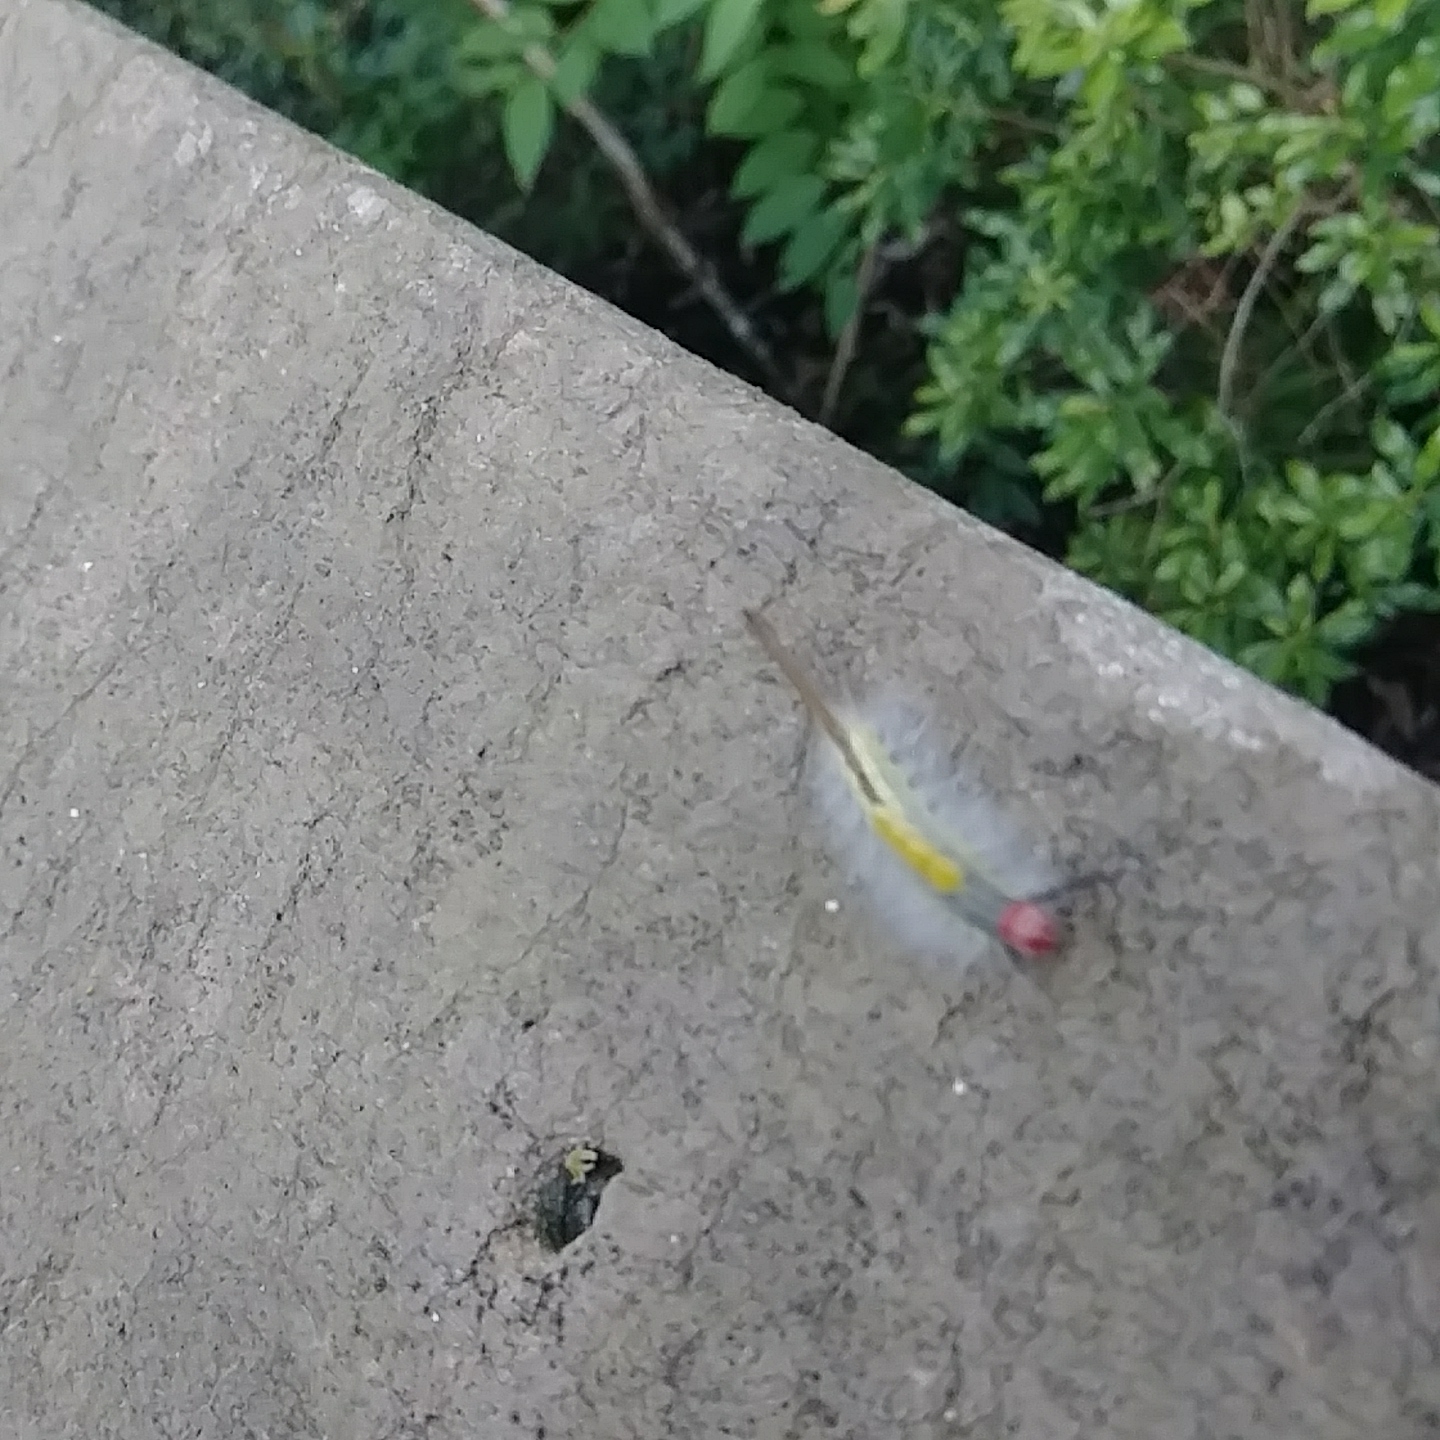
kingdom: Animalia
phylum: Arthropoda
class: Insecta
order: Lepidoptera
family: Erebidae
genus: Orgyia
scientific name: Orgyia leucostigma
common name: White-marked tussock moth
